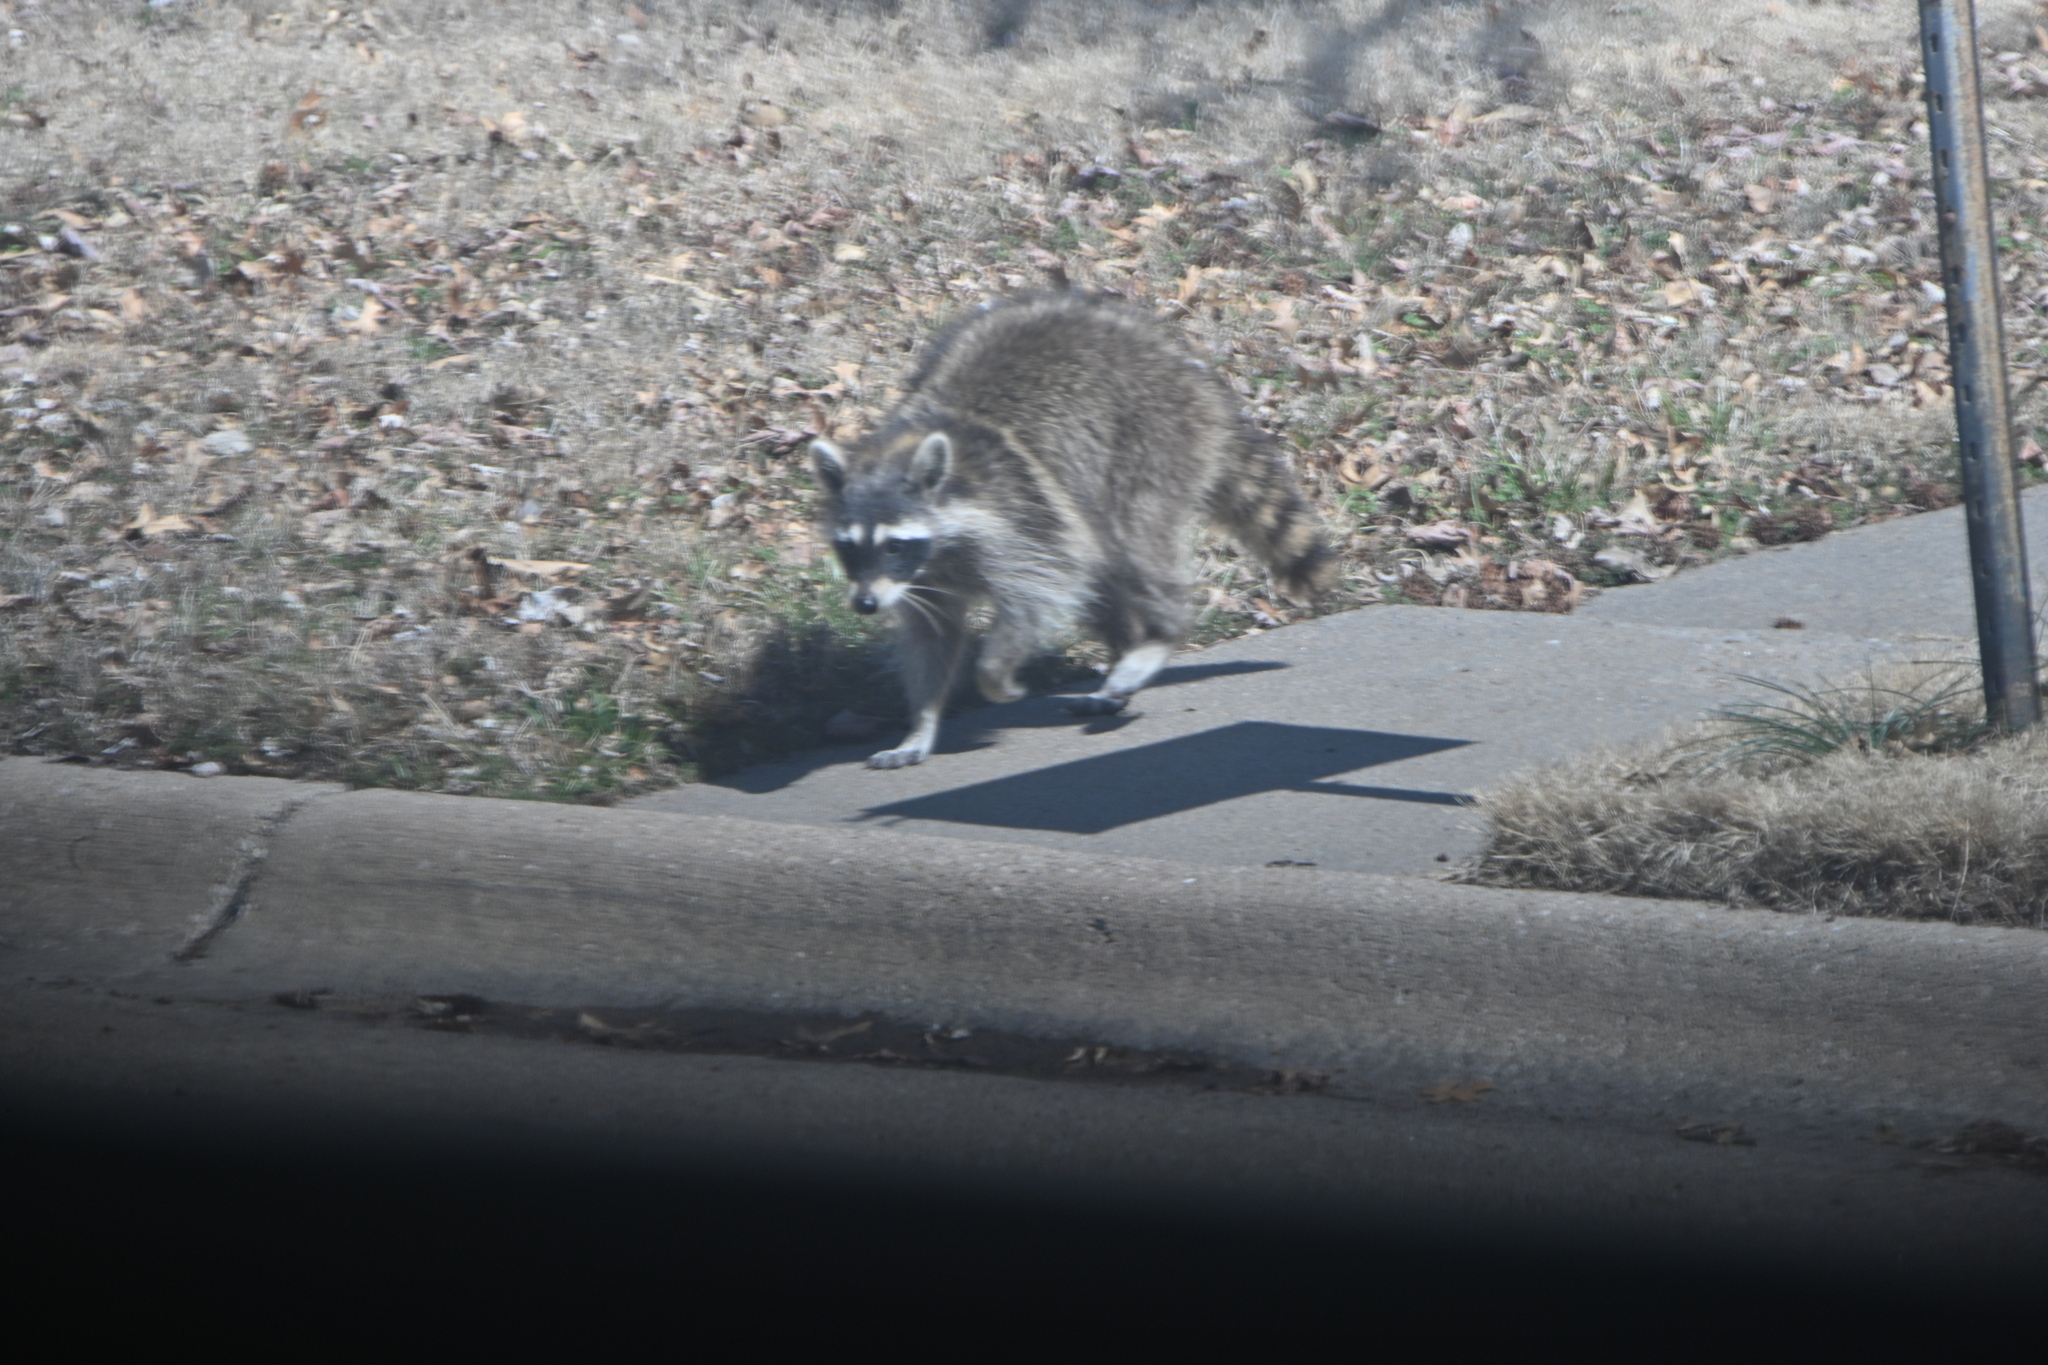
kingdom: Animalia
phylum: Chordata
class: Mammalia
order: Carnivora
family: Procyonidae
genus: Procyon
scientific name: Procyon lotor
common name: Raccoon
